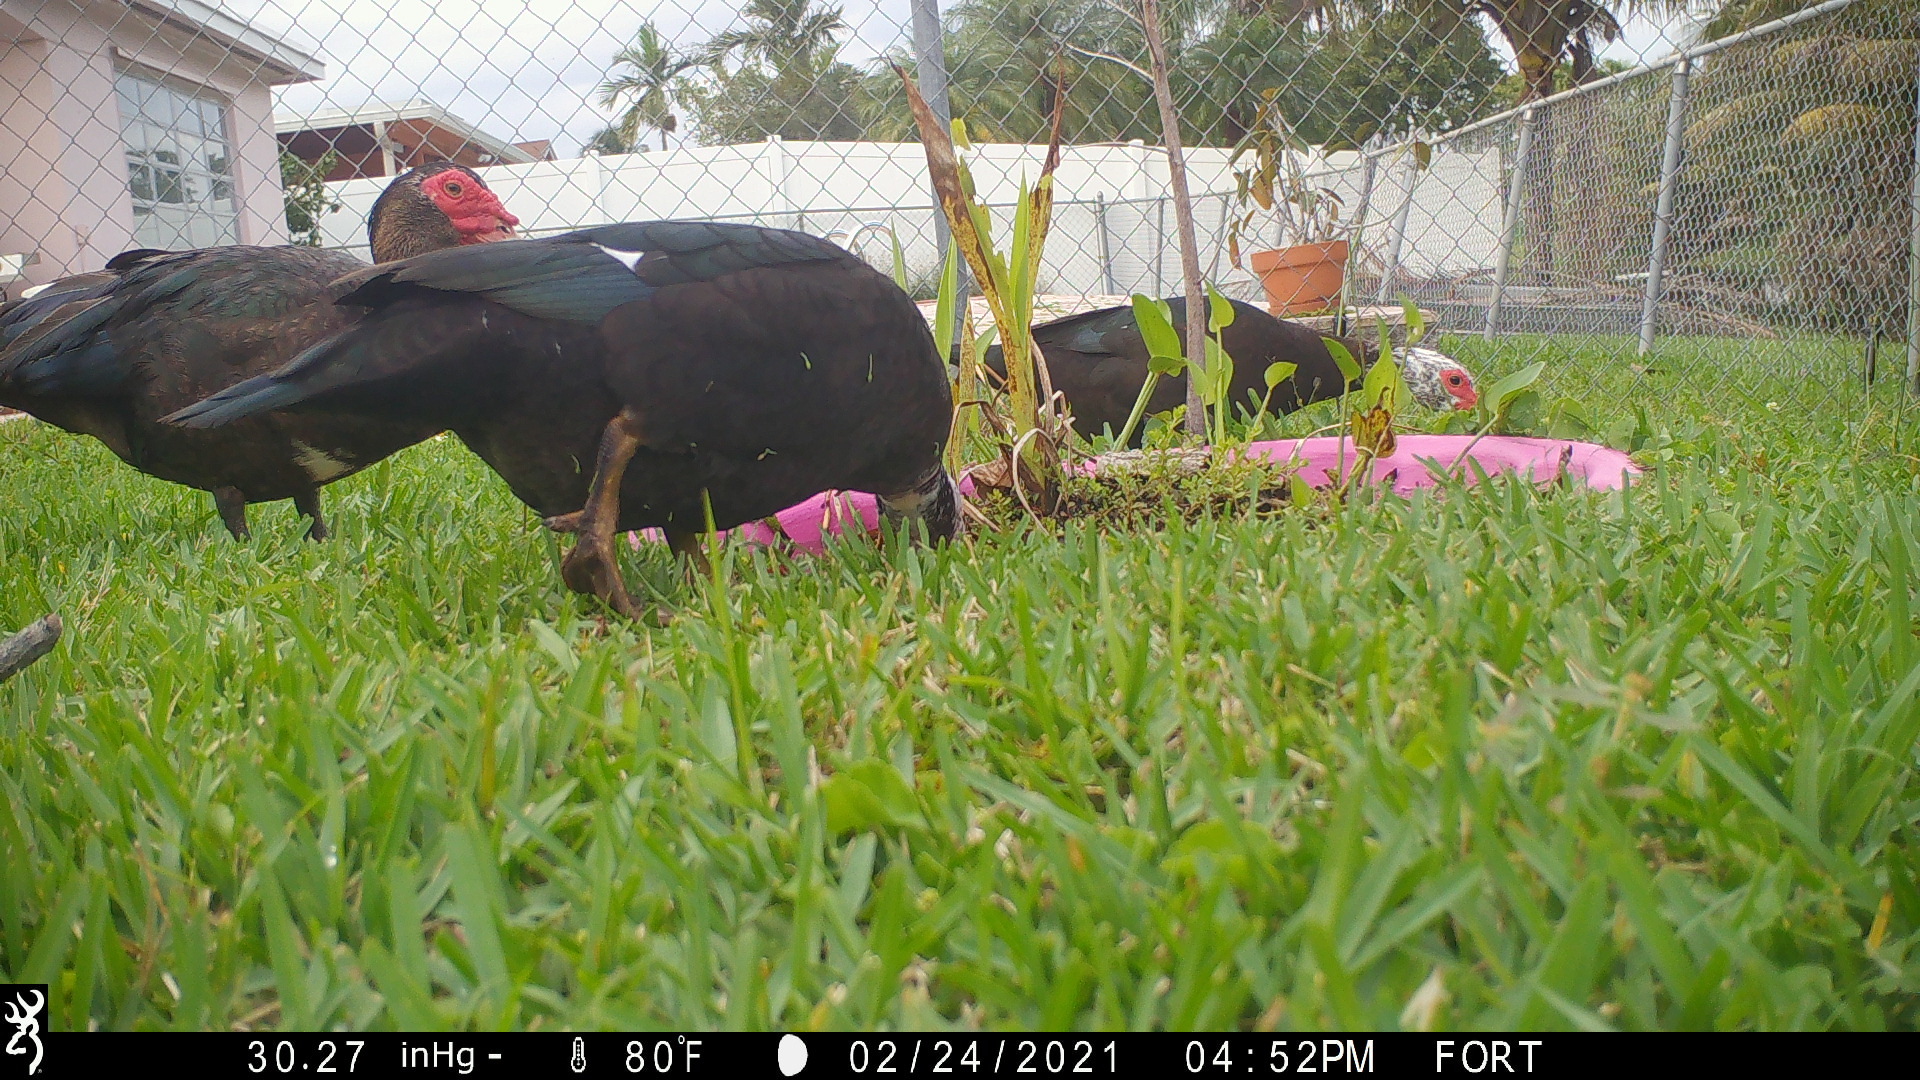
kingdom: Animalia
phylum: Chordata
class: Aves
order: Anseriformes
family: Anatidae
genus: Cairina
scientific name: Cairina moschata
